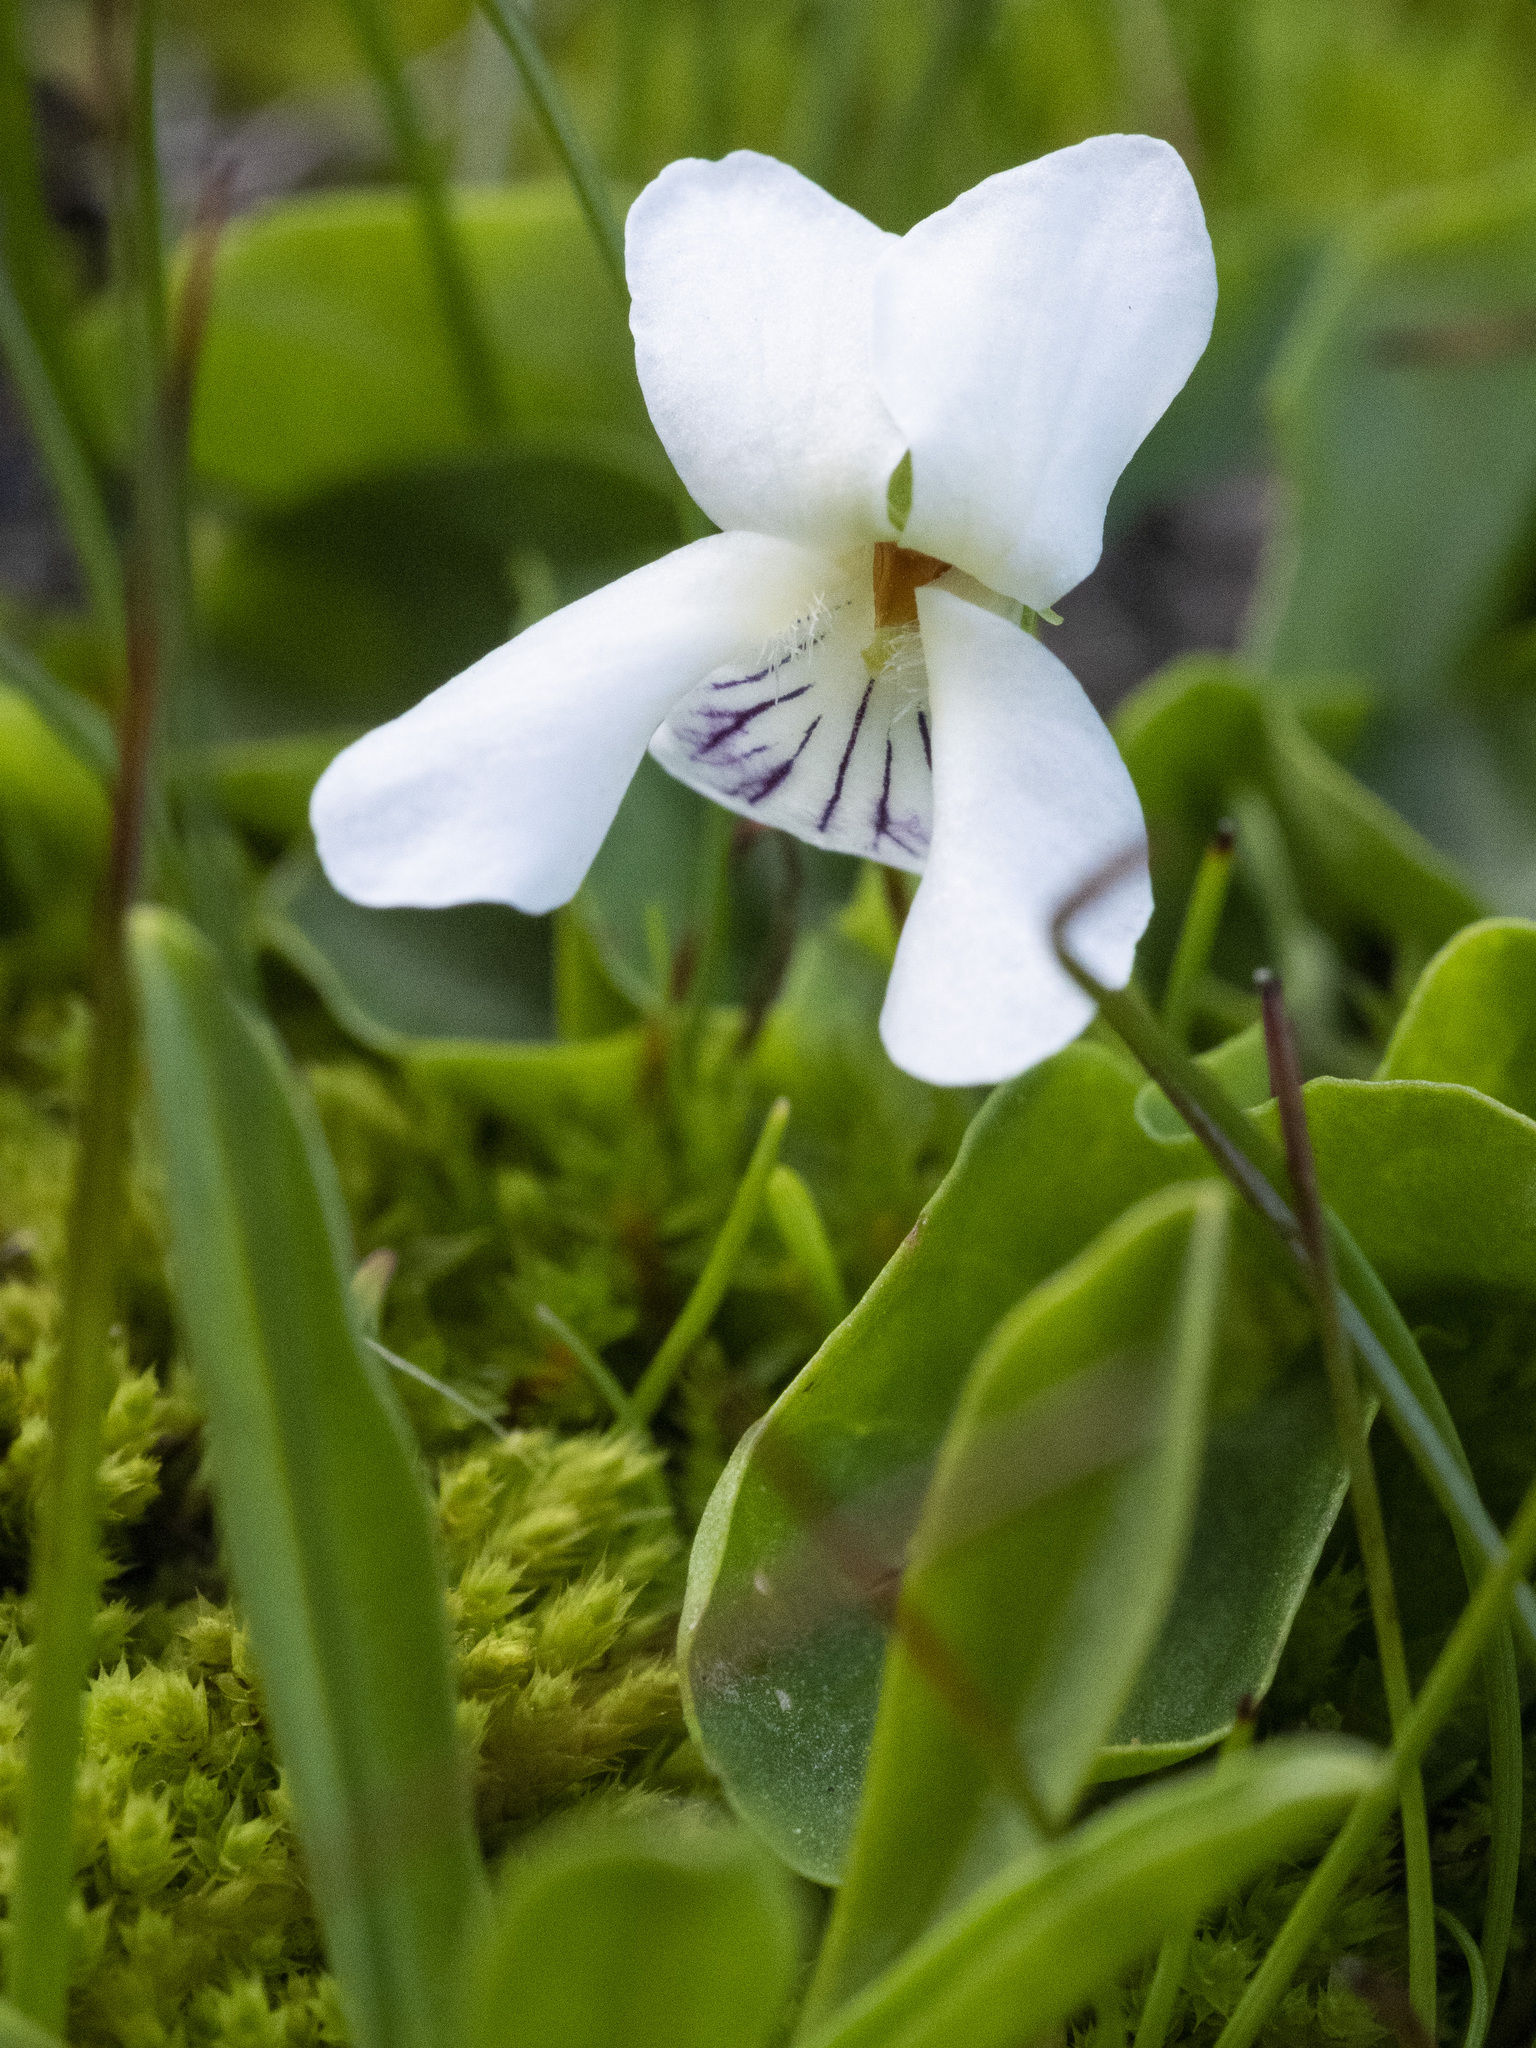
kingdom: Plantae
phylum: Tracheophyta
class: Magnoliopsida
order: Malpighiales
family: Violaceae
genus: Viola
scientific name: Viola macloskeyi
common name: Macloskey's violet
